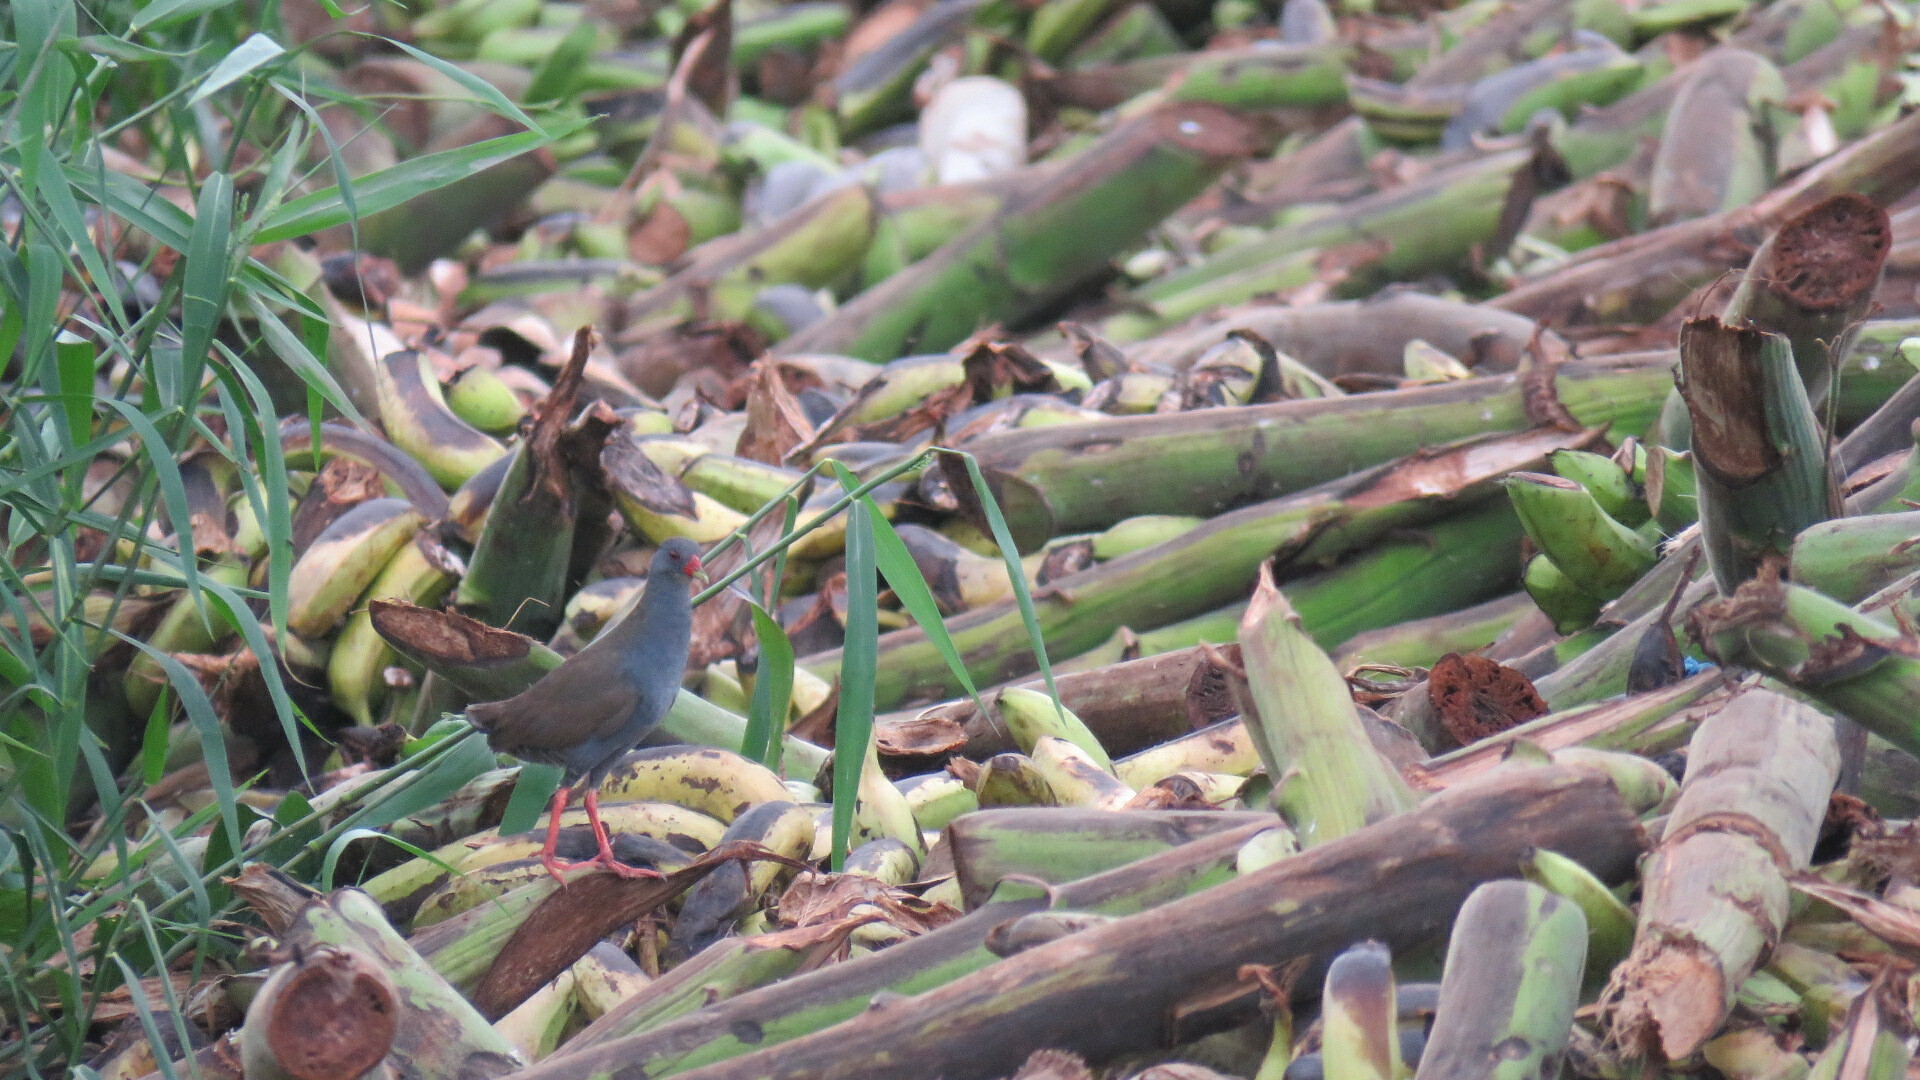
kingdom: Animalia
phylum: Chordata
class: Aves
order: Gruiformes
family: Rallidae
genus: Neocrex
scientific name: Neocrex erythrops
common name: Paint-billed crake
